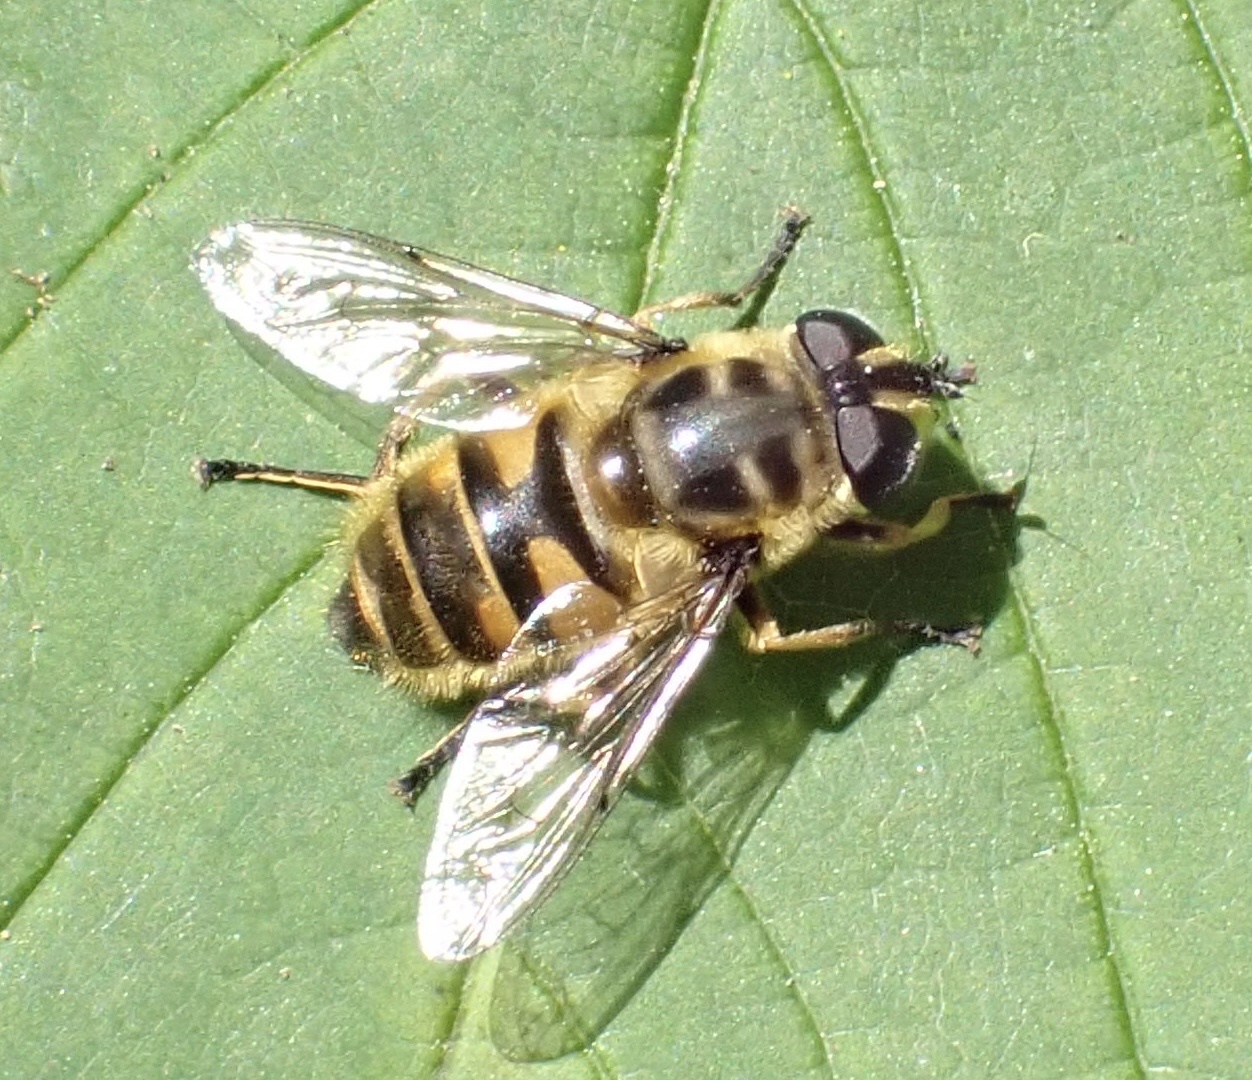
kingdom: Animalia
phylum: Arthropoda
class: Insecta
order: Diptera
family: Syrphidae
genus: Myathropa
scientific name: Myathropa florea
